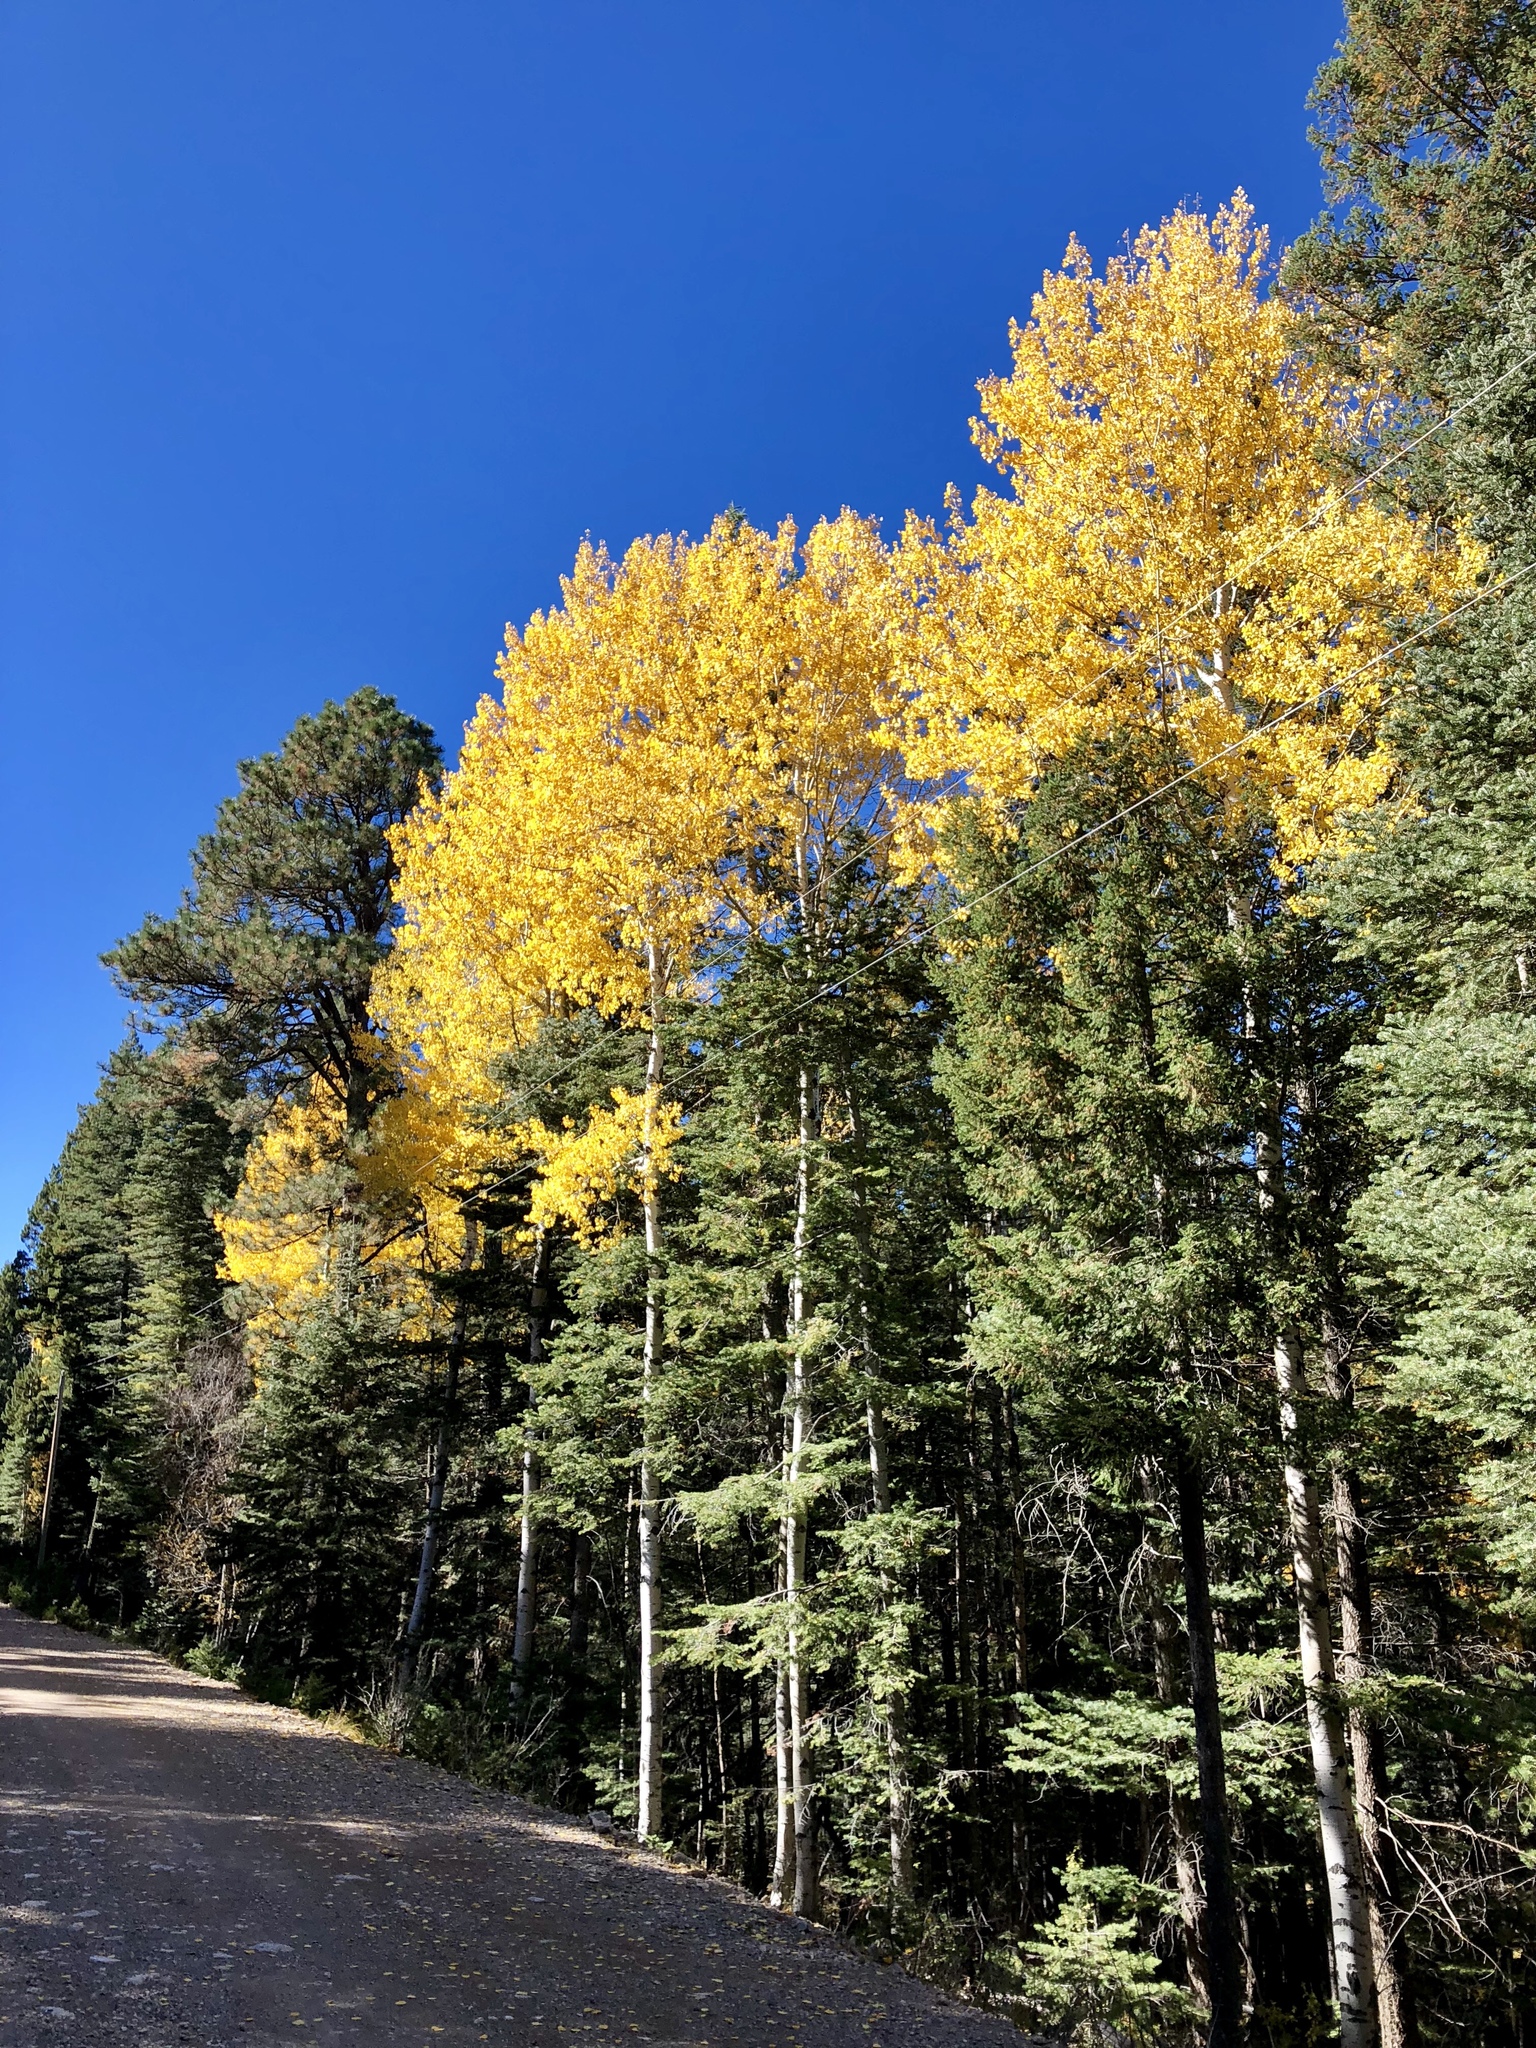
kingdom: Plantae
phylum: Tracheophyta
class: Magnoliopsida
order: Malpighiales
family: Salicaceae
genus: Populus
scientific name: Populus tremuloides
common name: Quaking aspen
